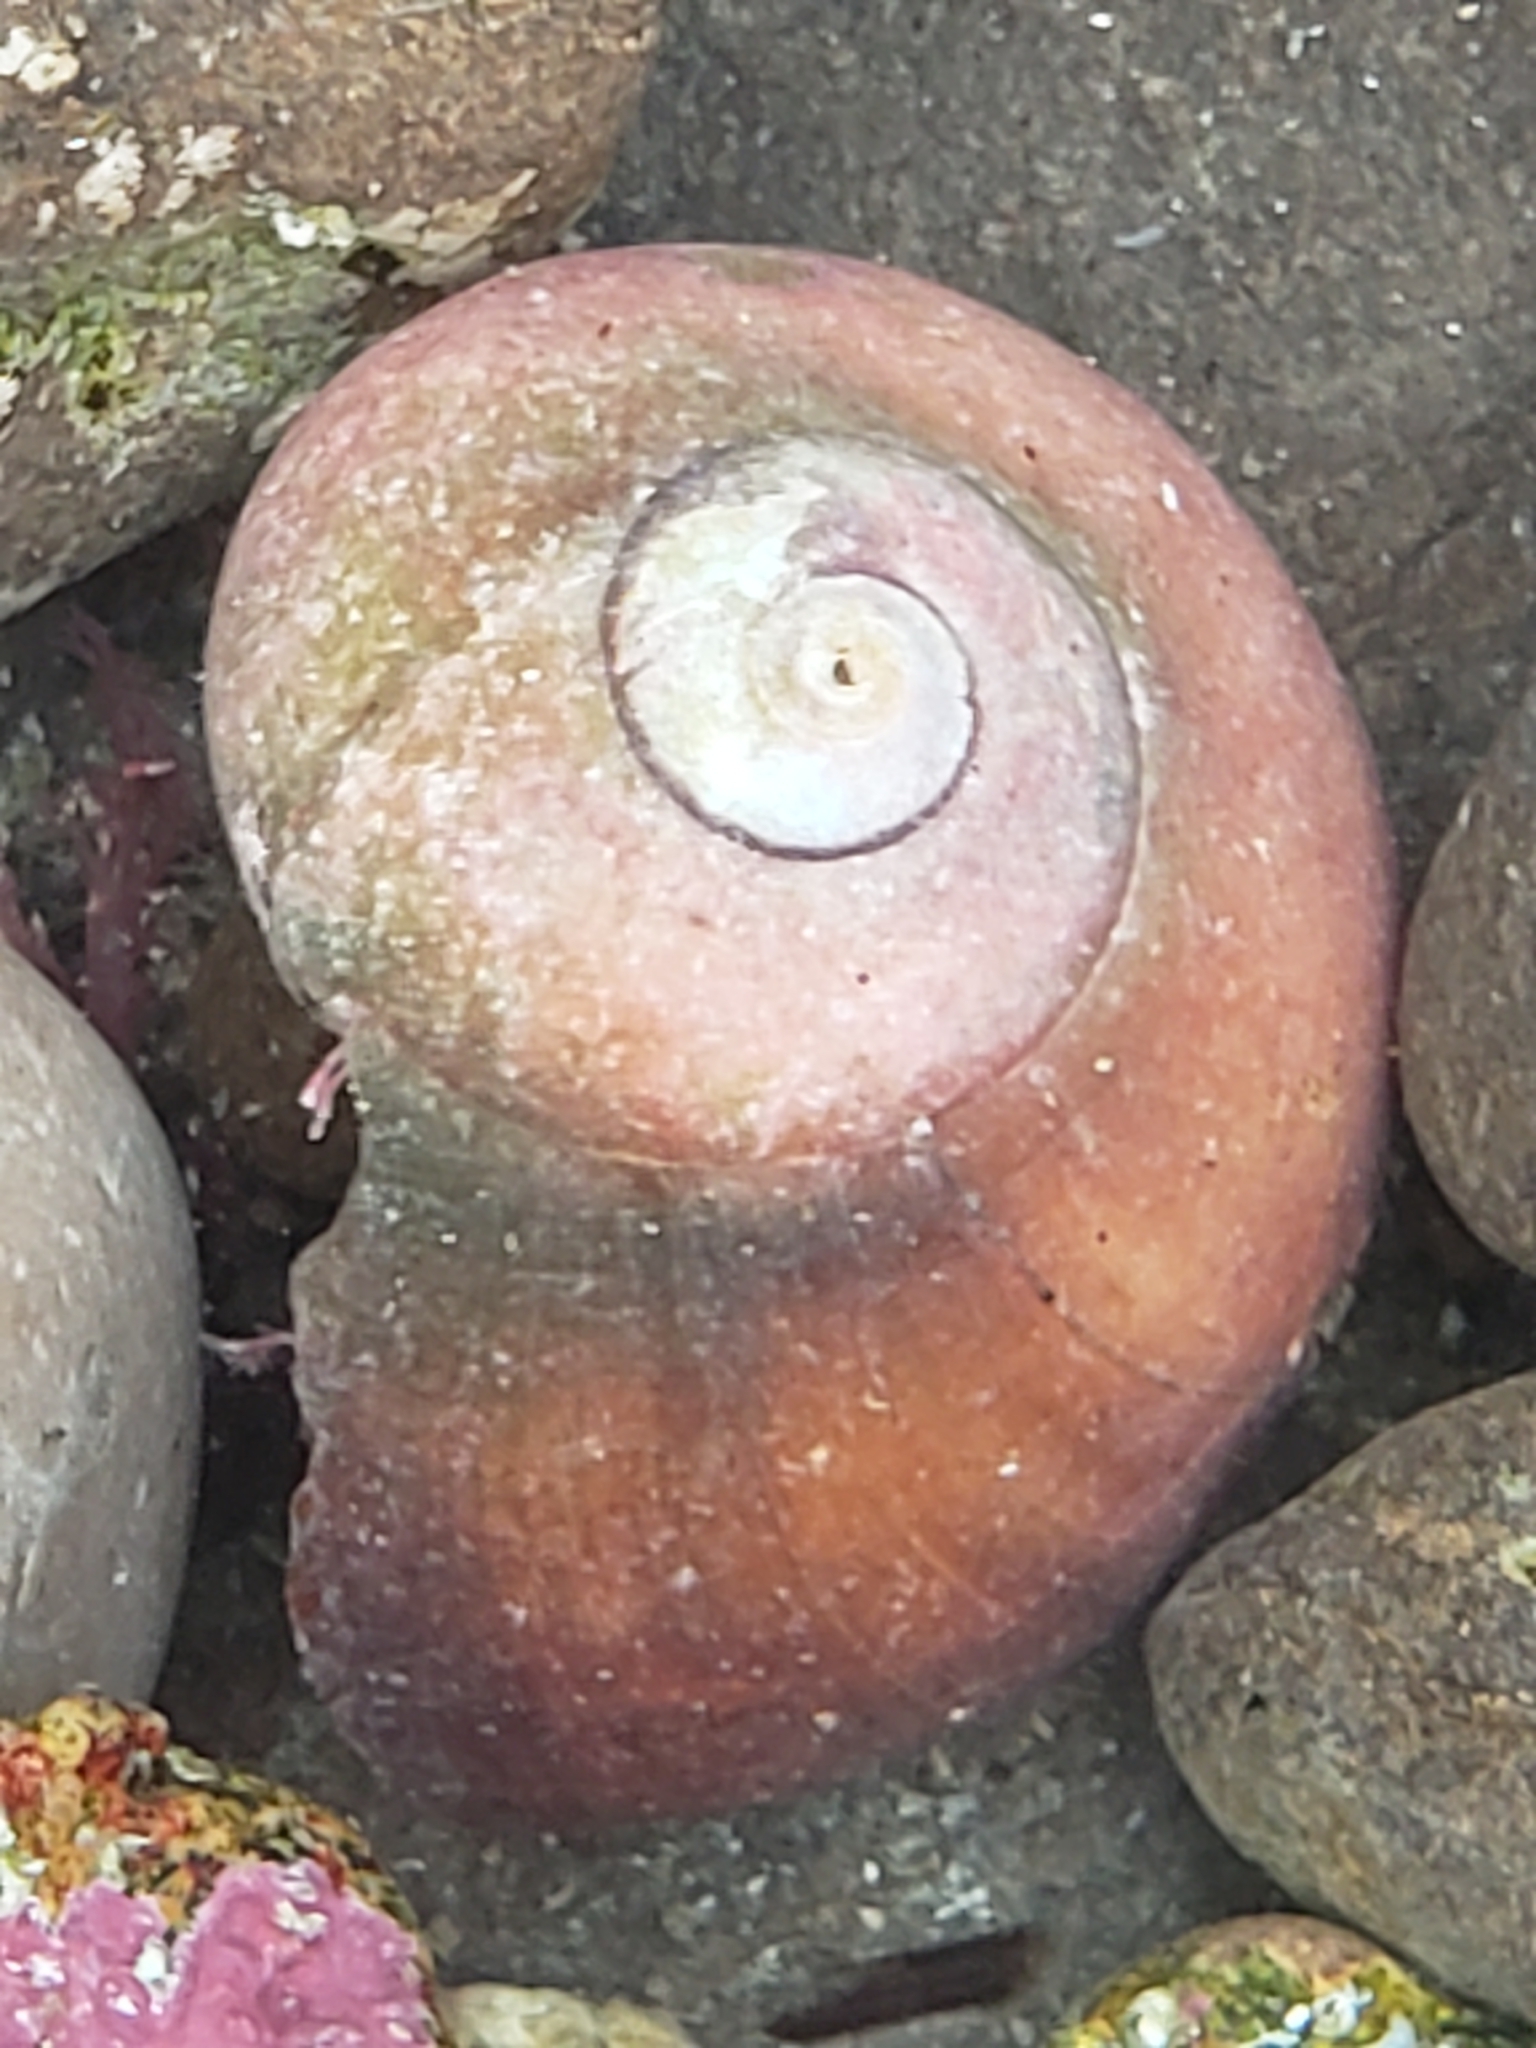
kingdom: Animalia
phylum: Mollusca
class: Gastropoda
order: Trochida
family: Tegulidae
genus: Norrisia
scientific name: Norrisia norrisii
